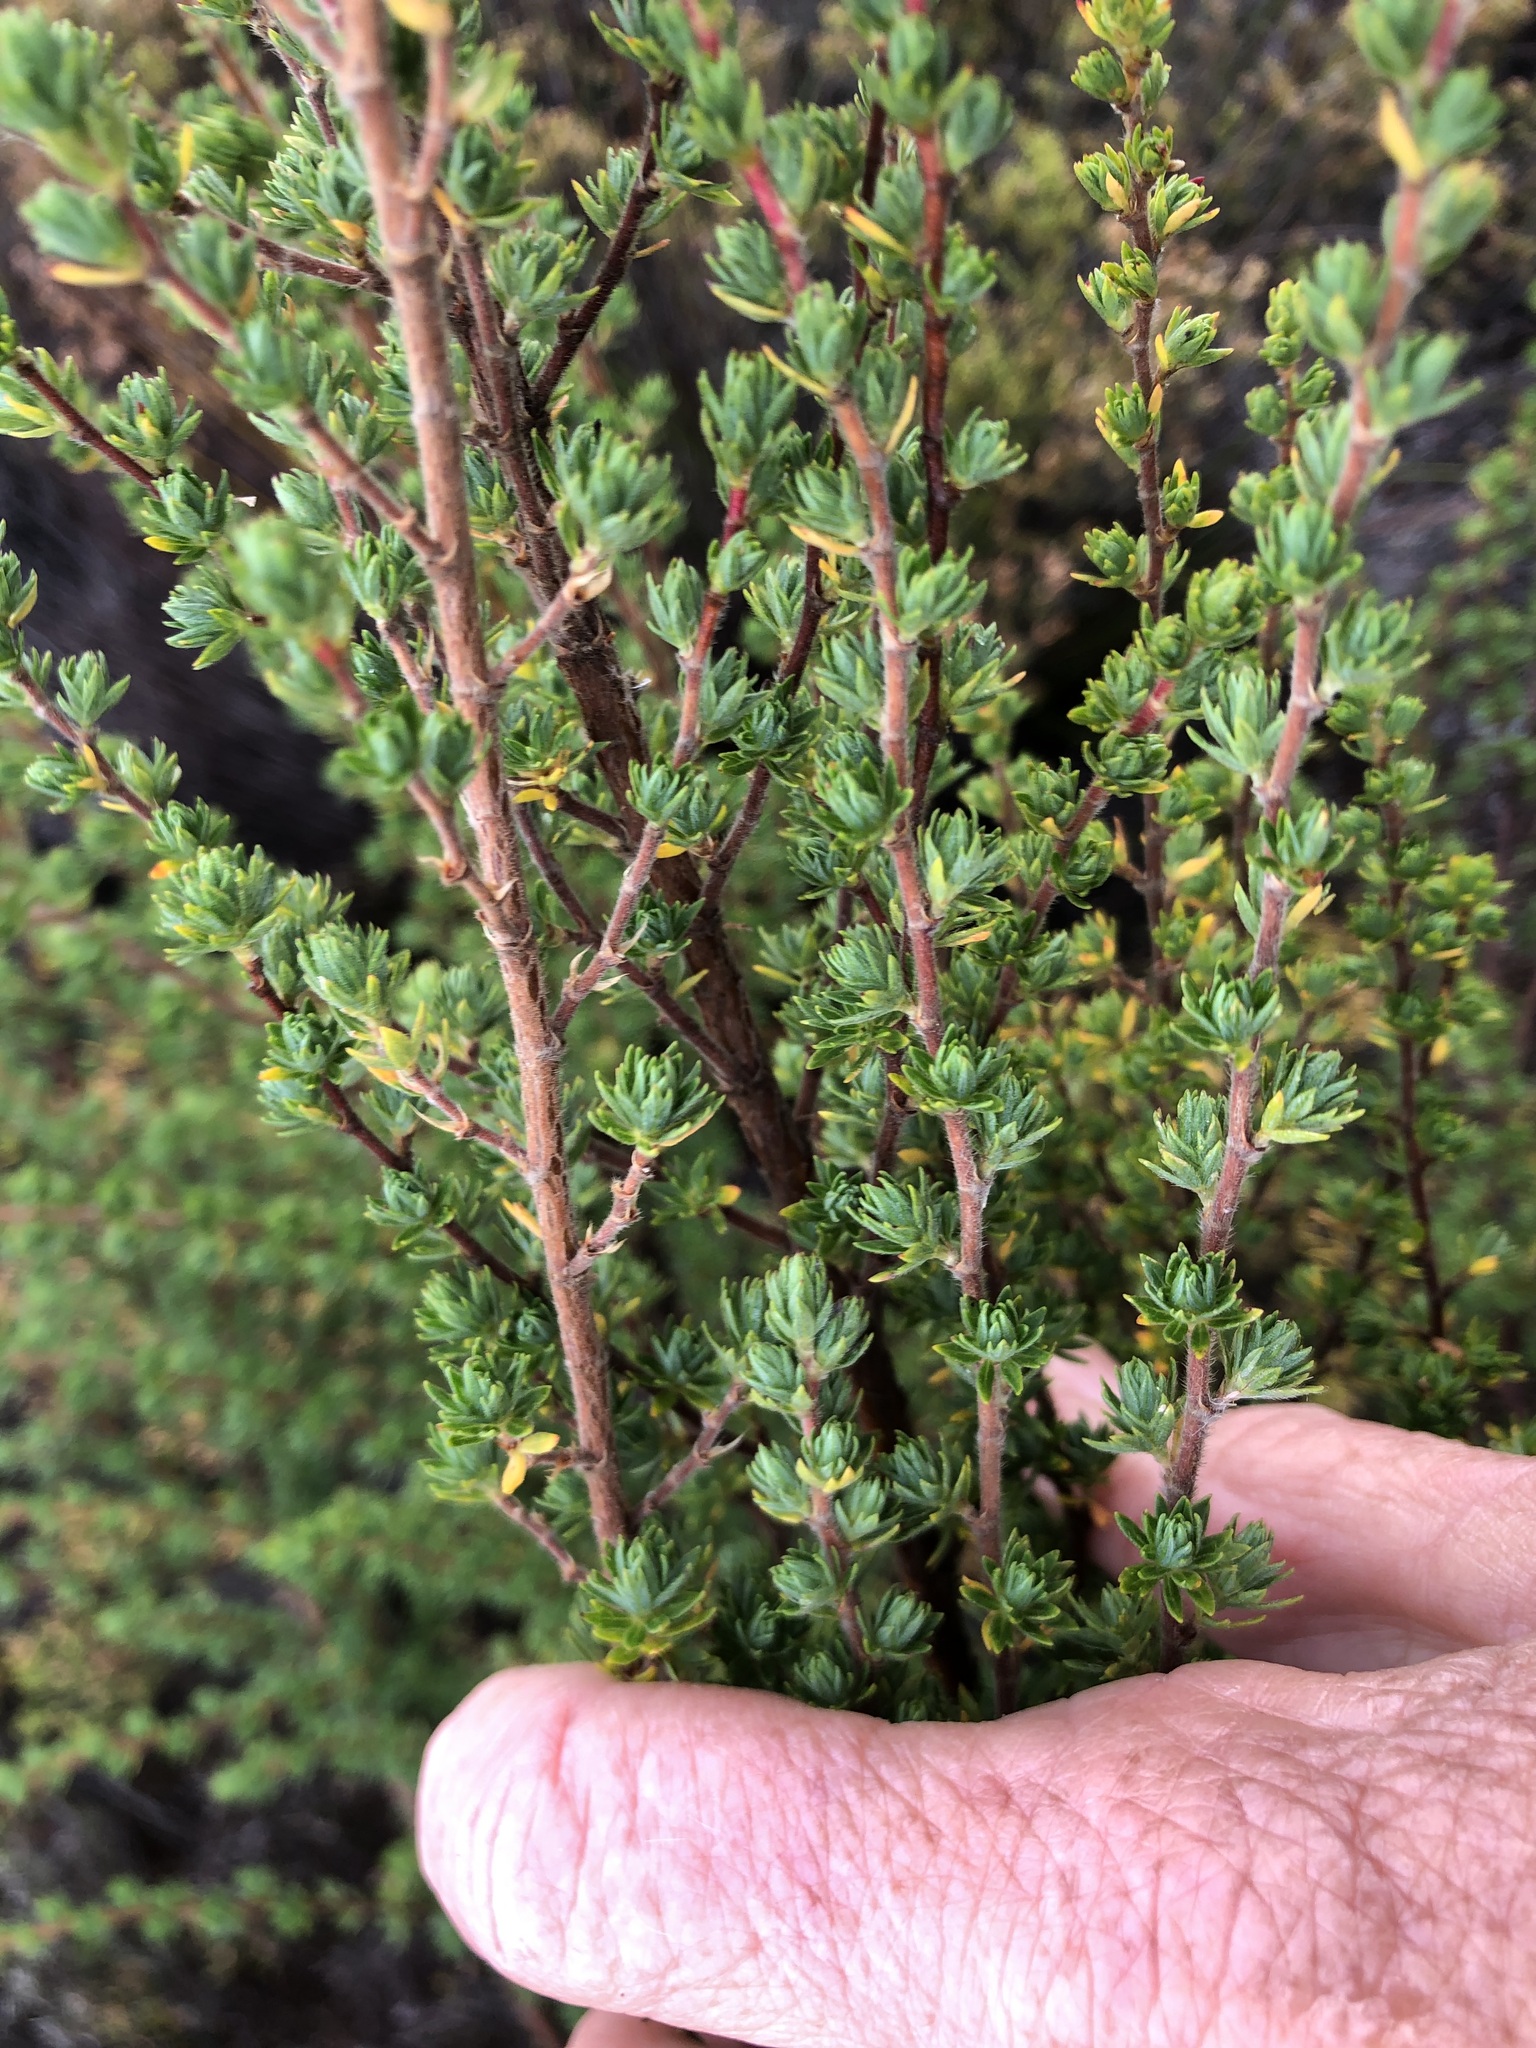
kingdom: Plantae
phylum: Tracheophyta
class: Magnoliopsida
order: Rosales
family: Rosaceae
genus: Cliffortia
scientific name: Cliffortia polygonifolia
